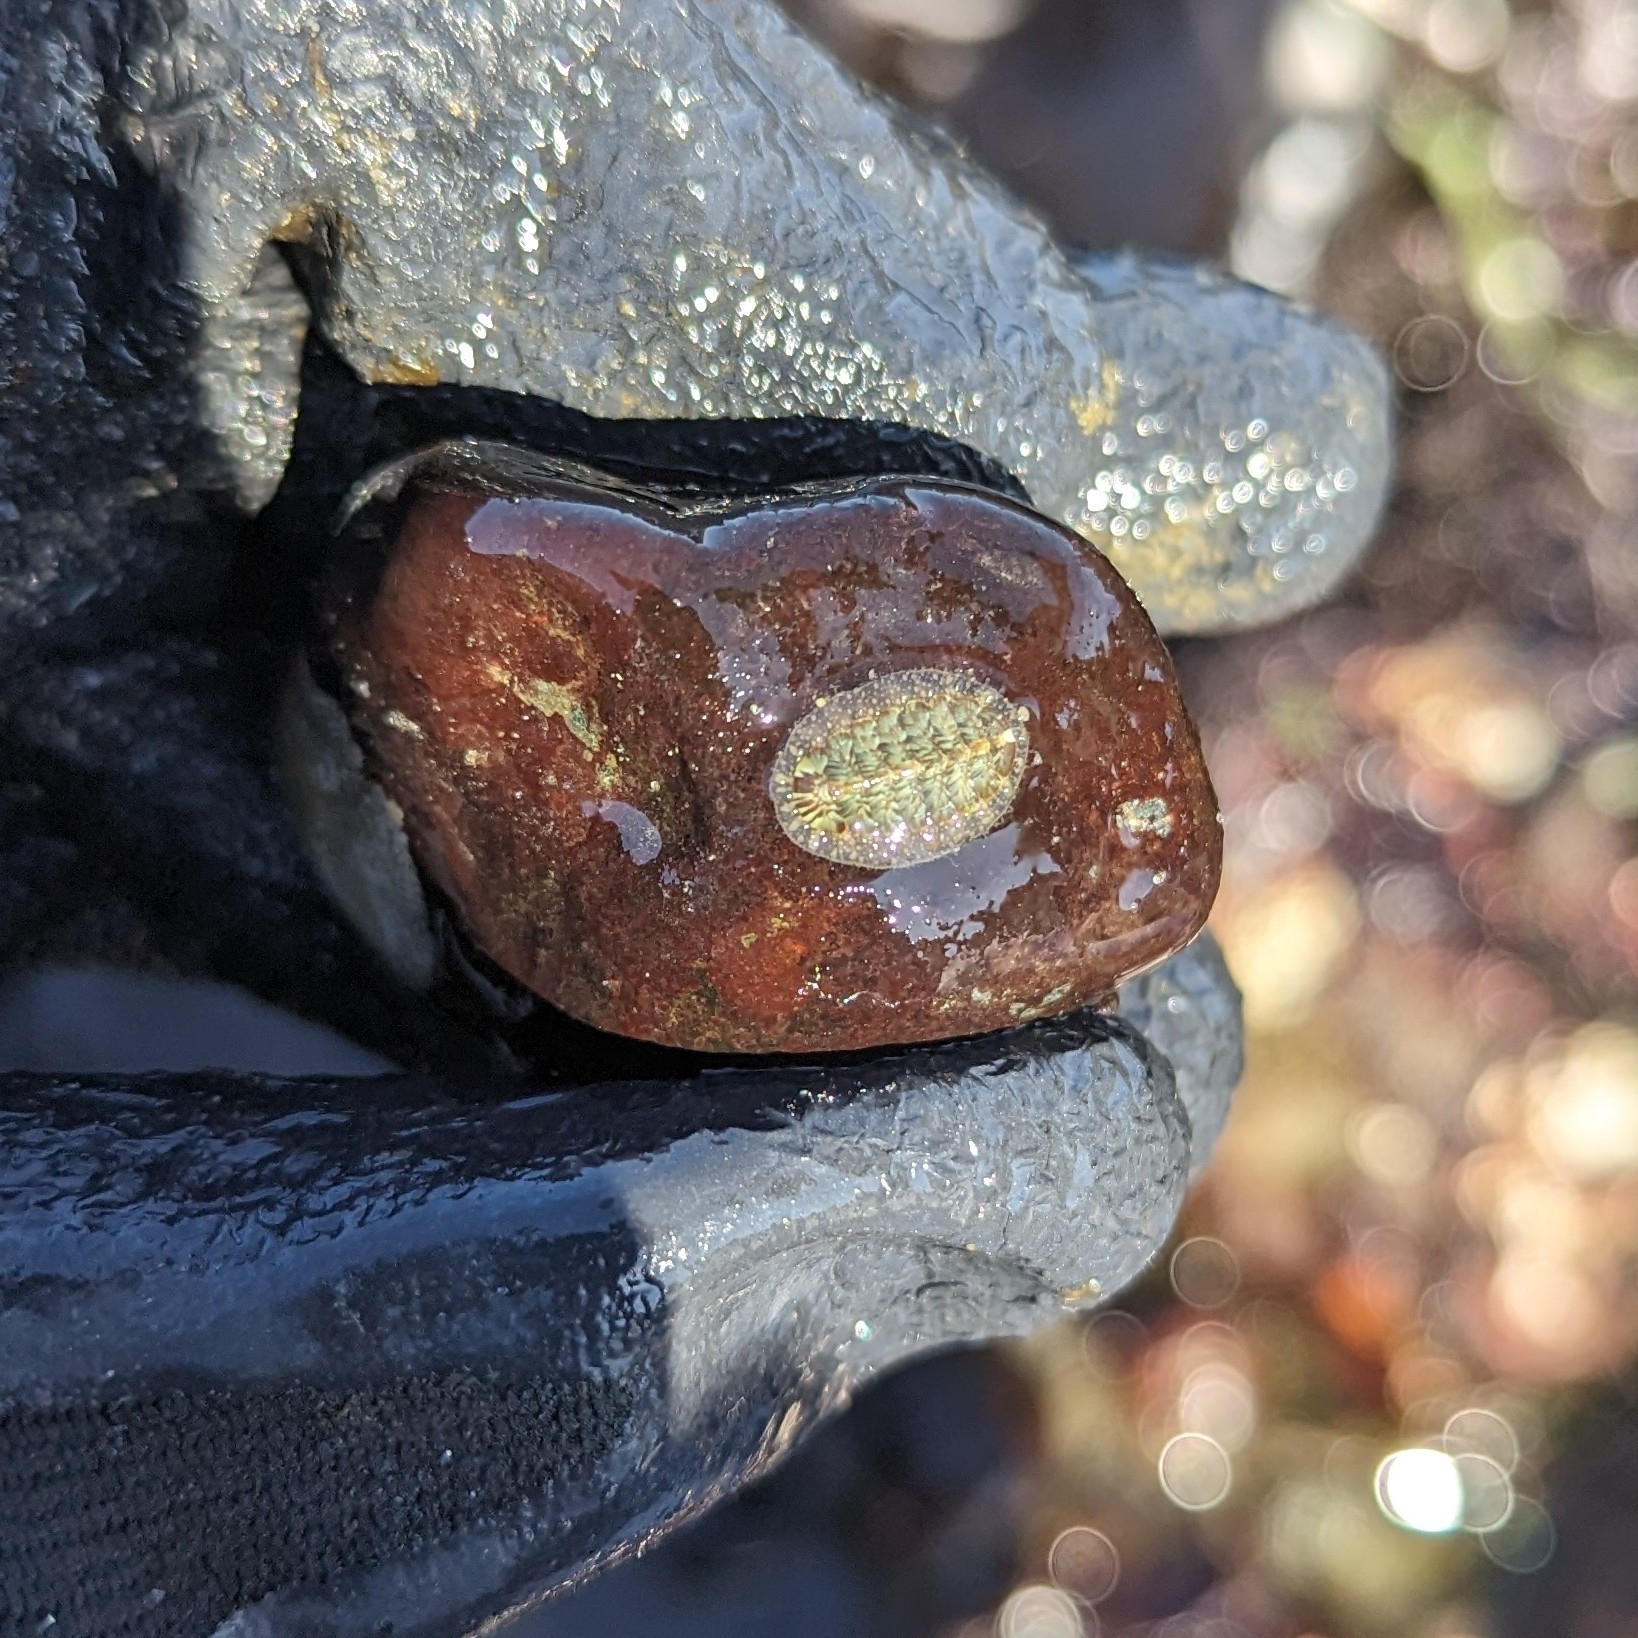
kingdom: Animalia
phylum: Mollusca
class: Polyplacophora
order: Chitonida
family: Mopaliidae
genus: Mopalia
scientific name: Mopalia lignosa
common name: Woody chiton
